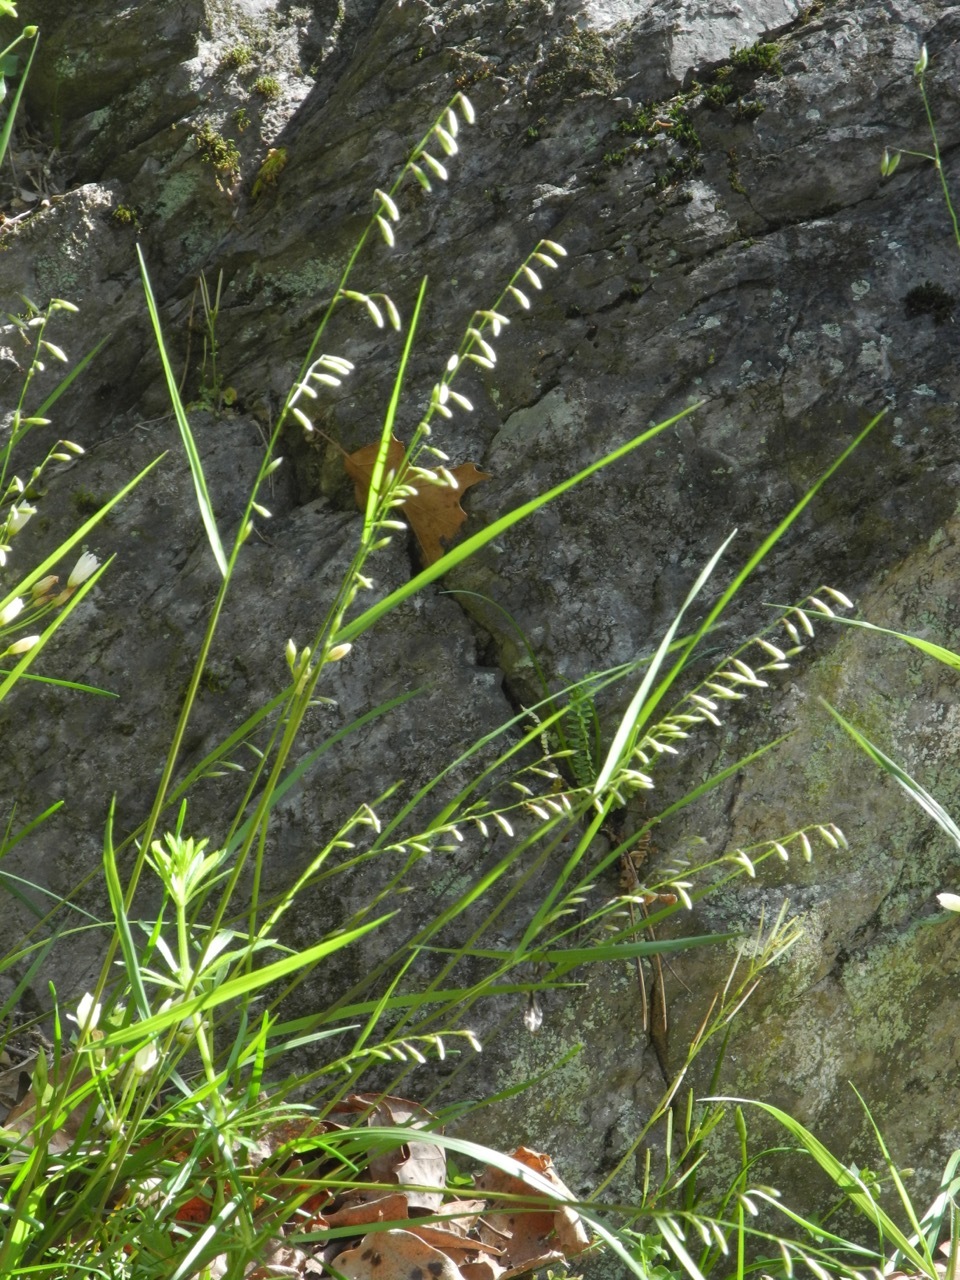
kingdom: Plantae
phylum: Tracheophyta
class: Liliopsida
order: Poales
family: Poaceae
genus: Melica
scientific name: Melica mutica
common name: Two-flower melic
